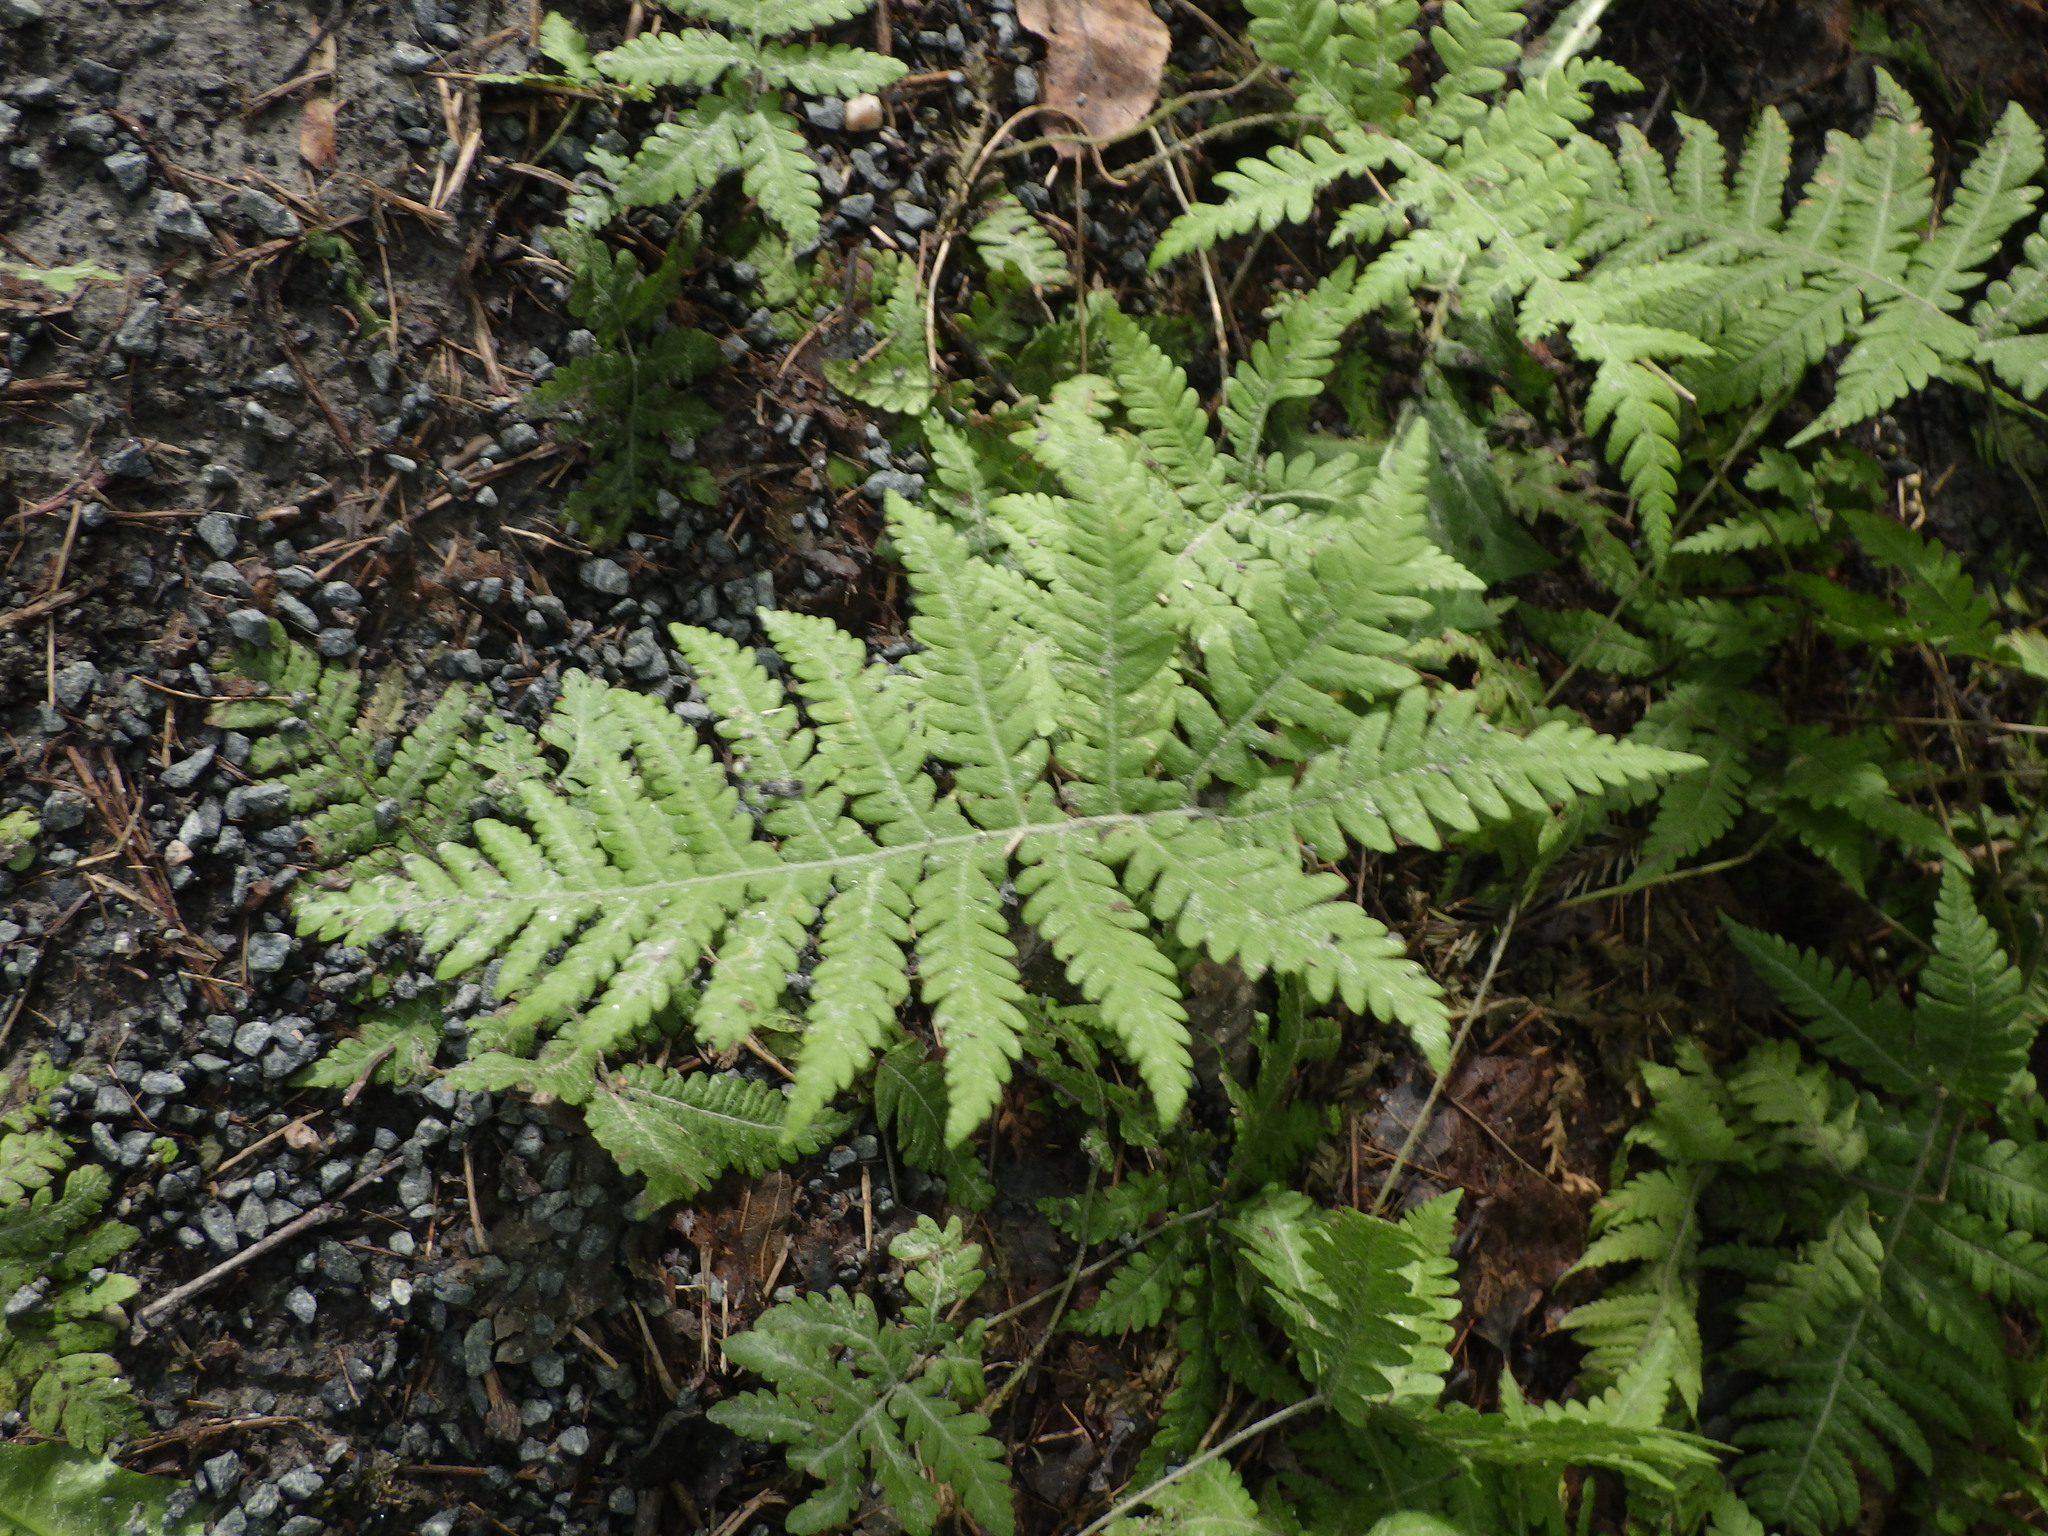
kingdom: Plantae
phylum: Tracheophyta
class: Polypodiopsida
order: Polypodiales
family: Thelypteridaceae
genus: Phegopteris
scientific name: Phegopteris connectilis
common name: Beech fern
